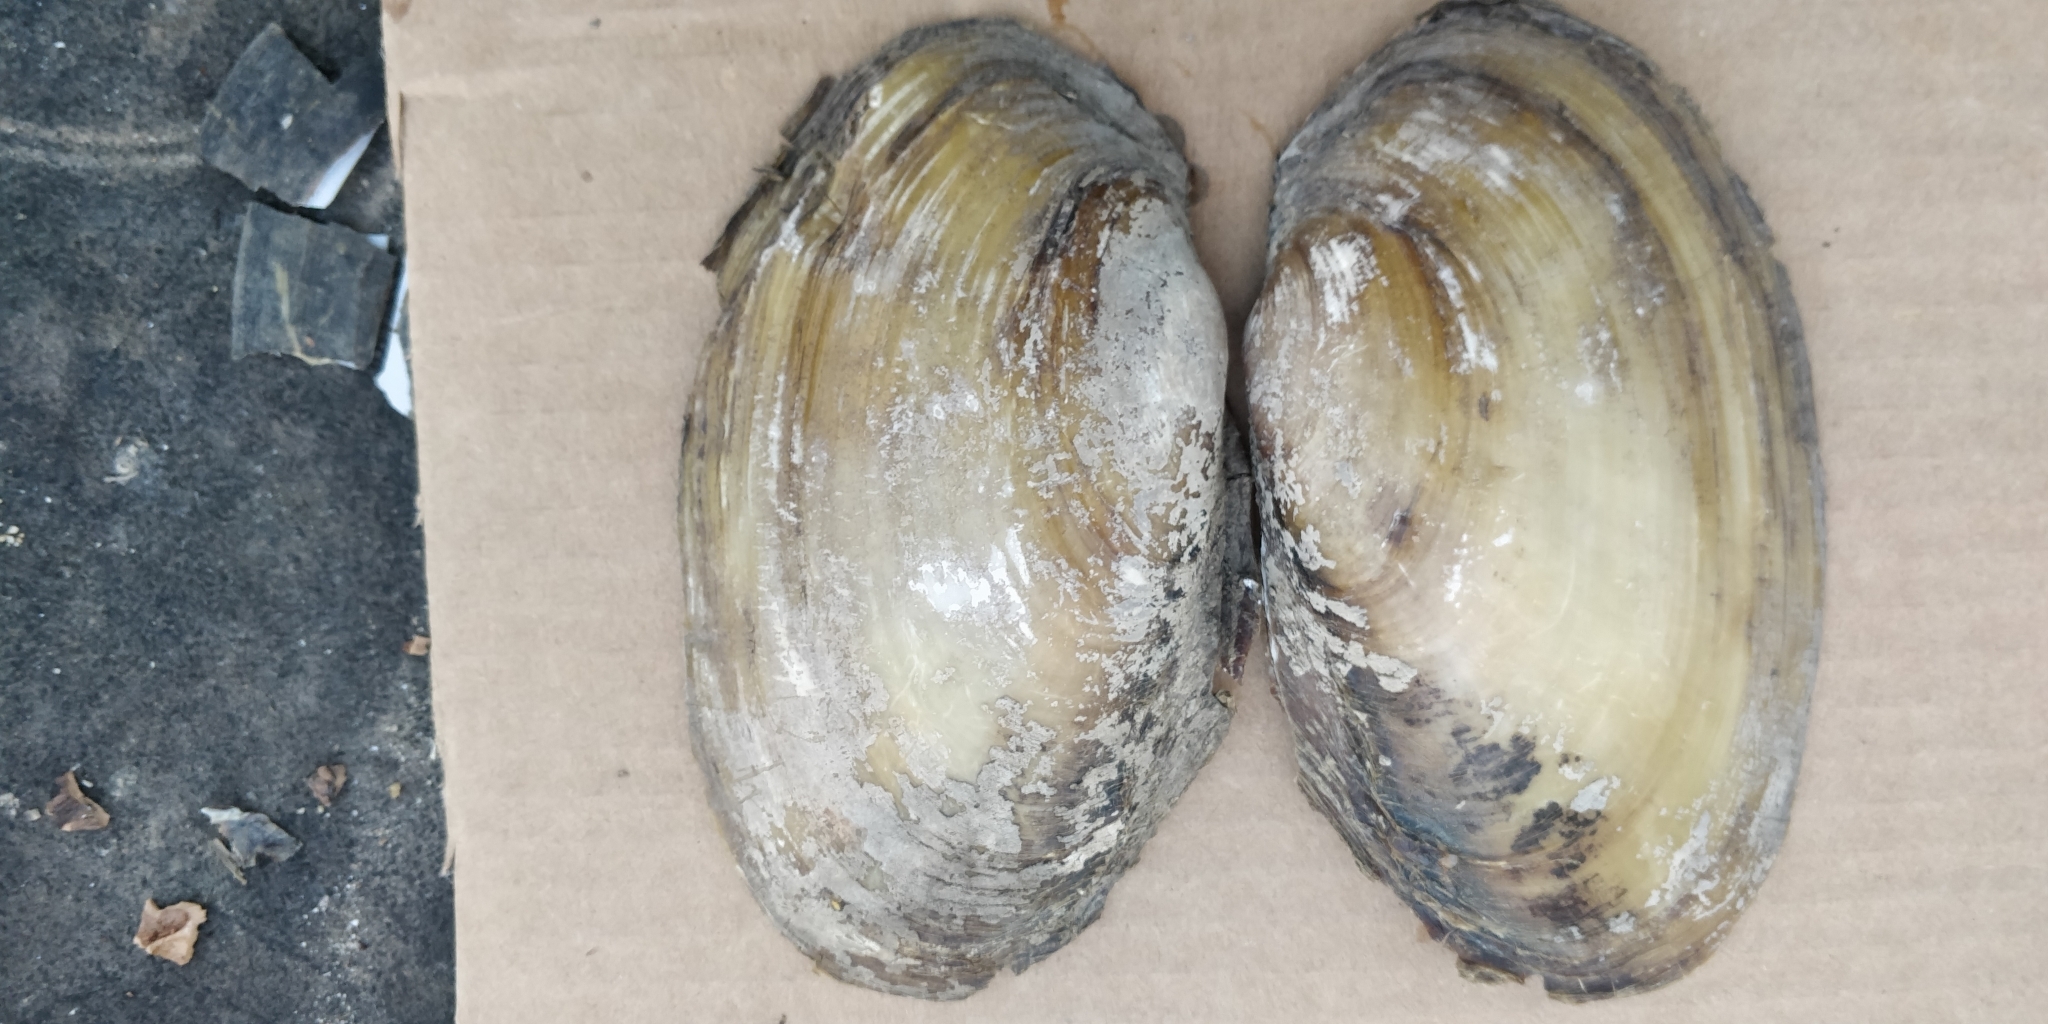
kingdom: Animalia
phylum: Mollusca
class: Bivalvia
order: Unionida
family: Unionidae
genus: Potamilus
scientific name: Potamilus fragilis
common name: Fragile papershell
